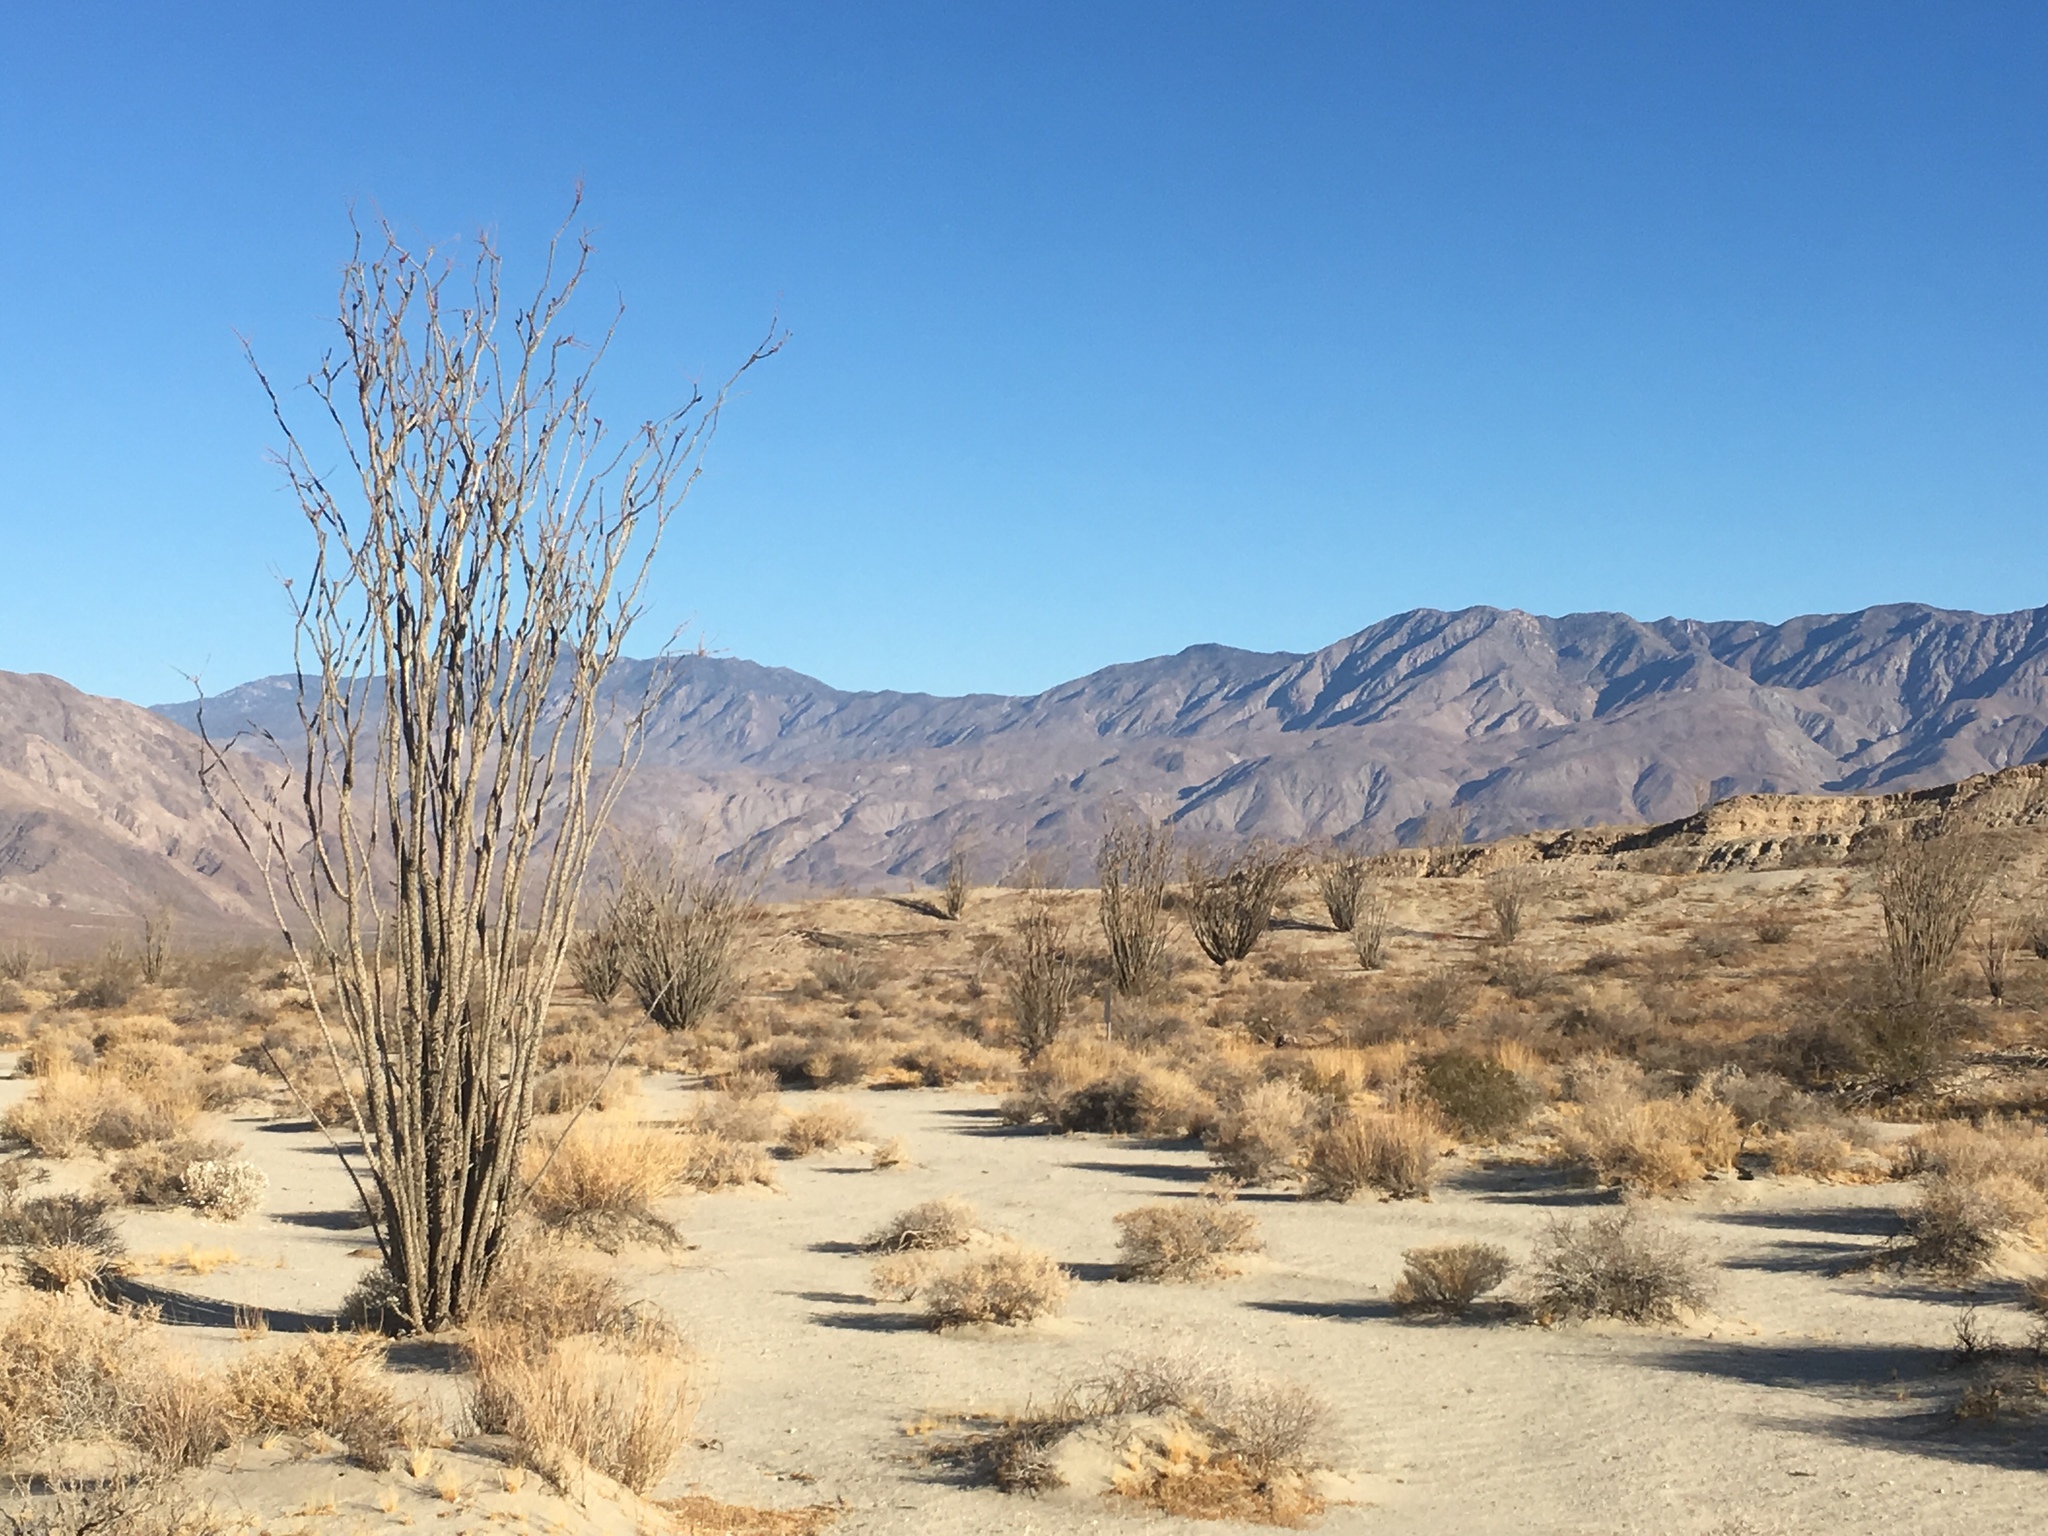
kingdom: Plantae
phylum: Tracheophyta
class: Magnoliopsida
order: Ericales
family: Fouquieriaceae
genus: Fouquieria
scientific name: Fouquieria splendens
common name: Vine-cactus
